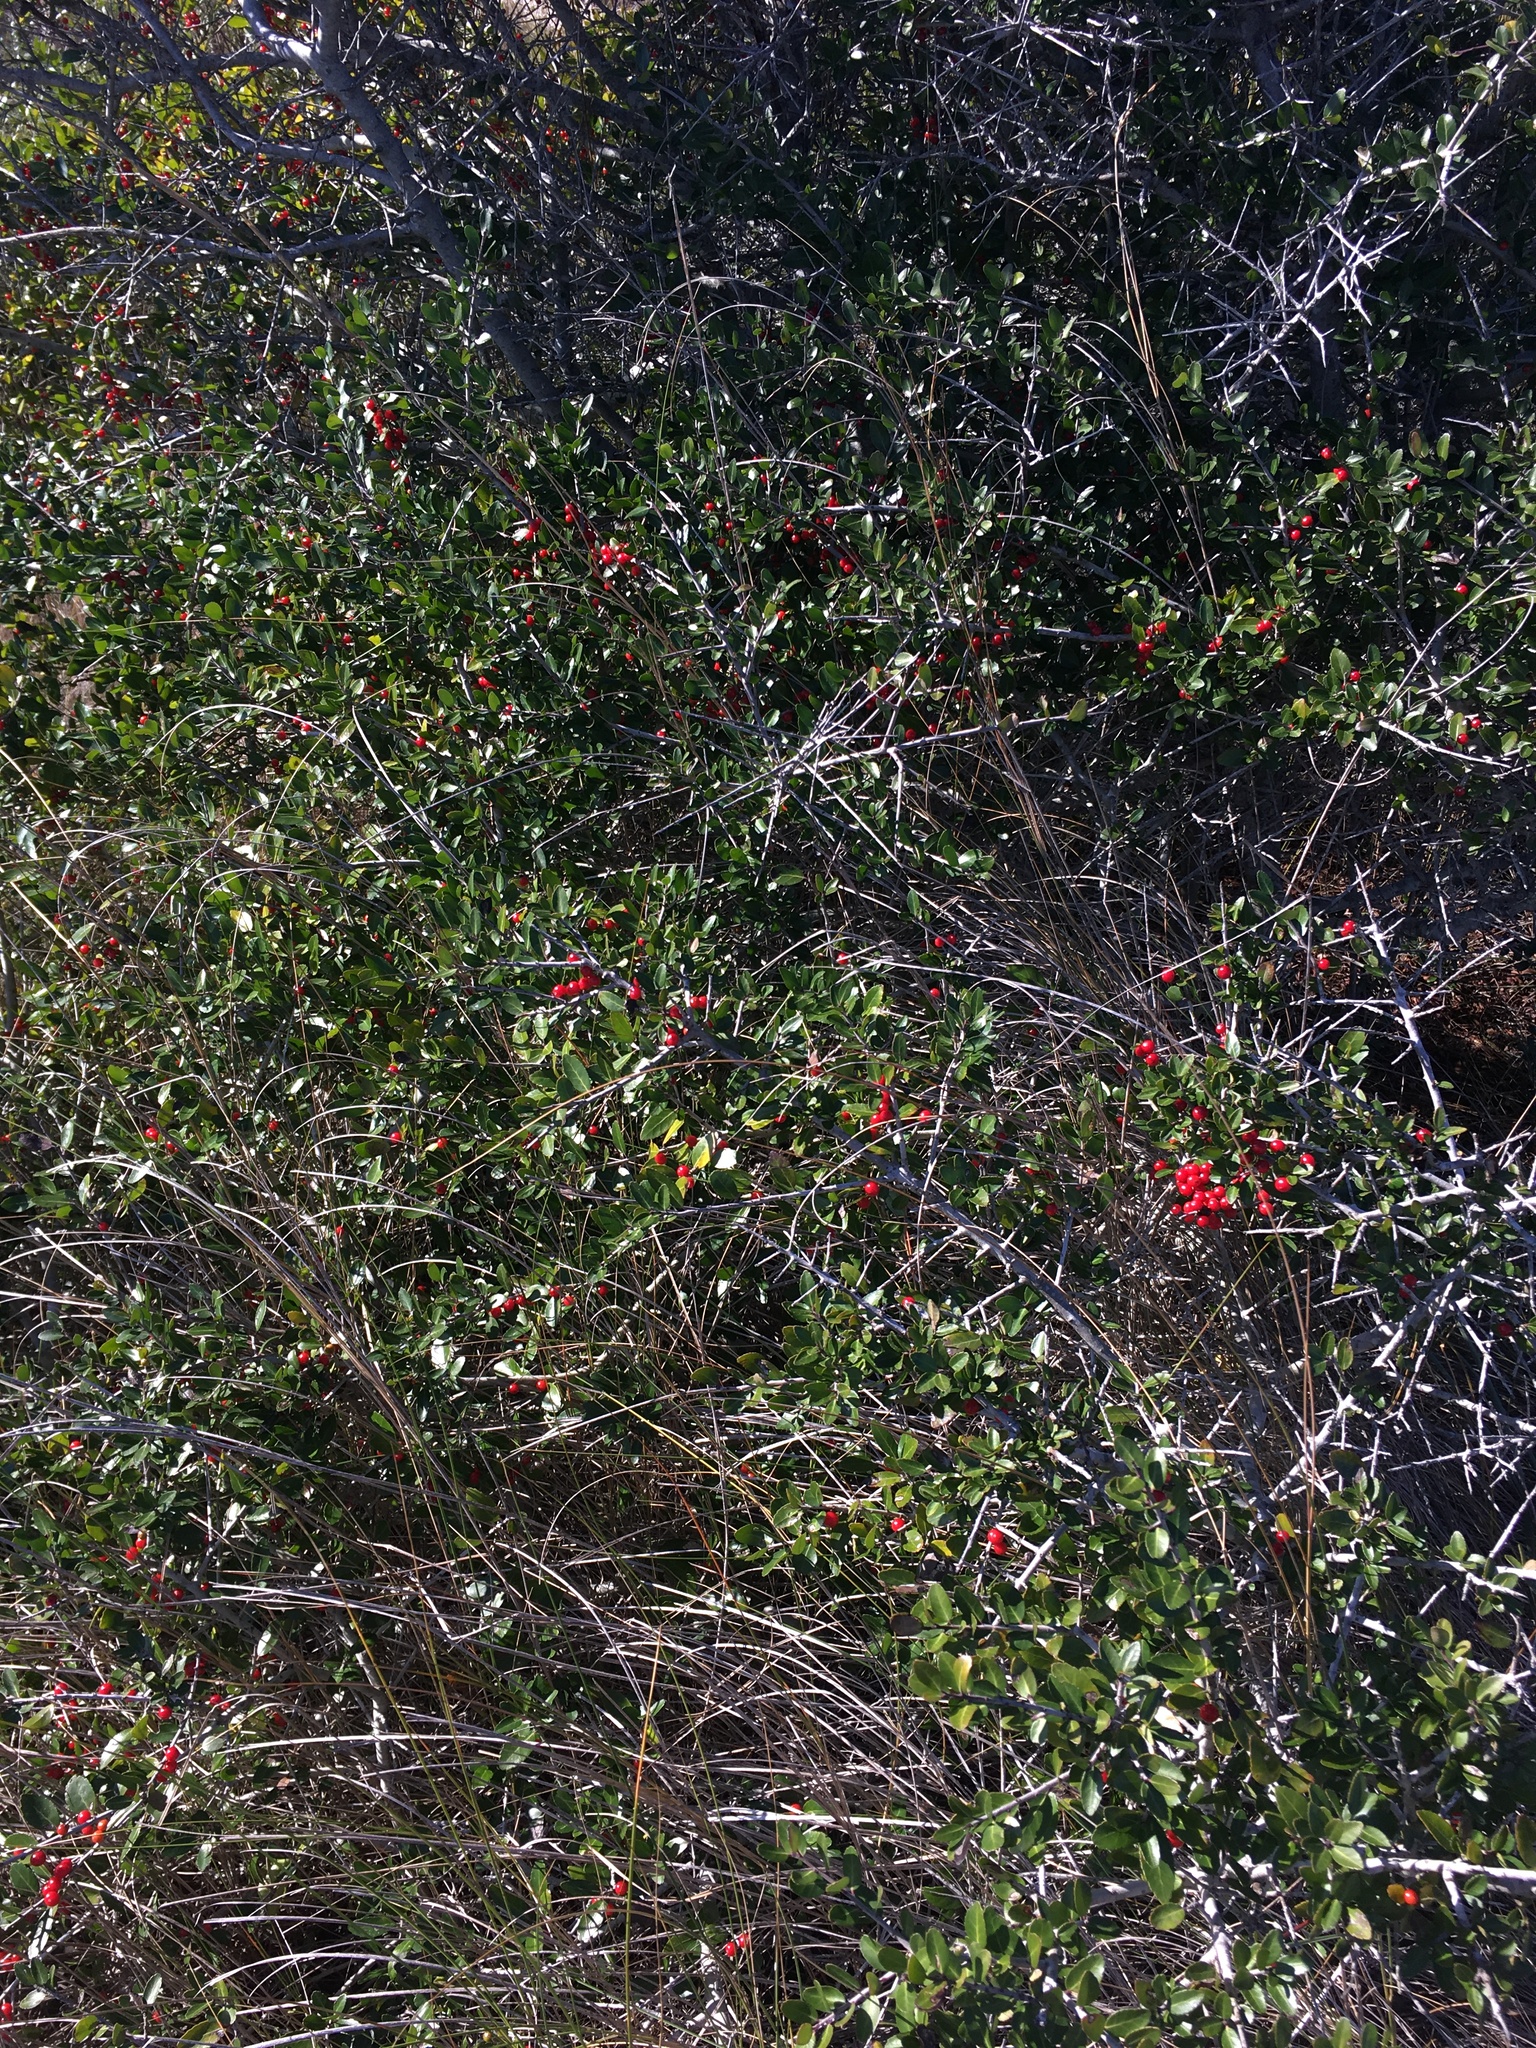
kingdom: Plantae
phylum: Tracheophyta
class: Magnoliopsida
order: Aquifoliales
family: Aquifoliaceae
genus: Ilex
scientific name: Ilex vomitoria
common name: Yaupon holly
